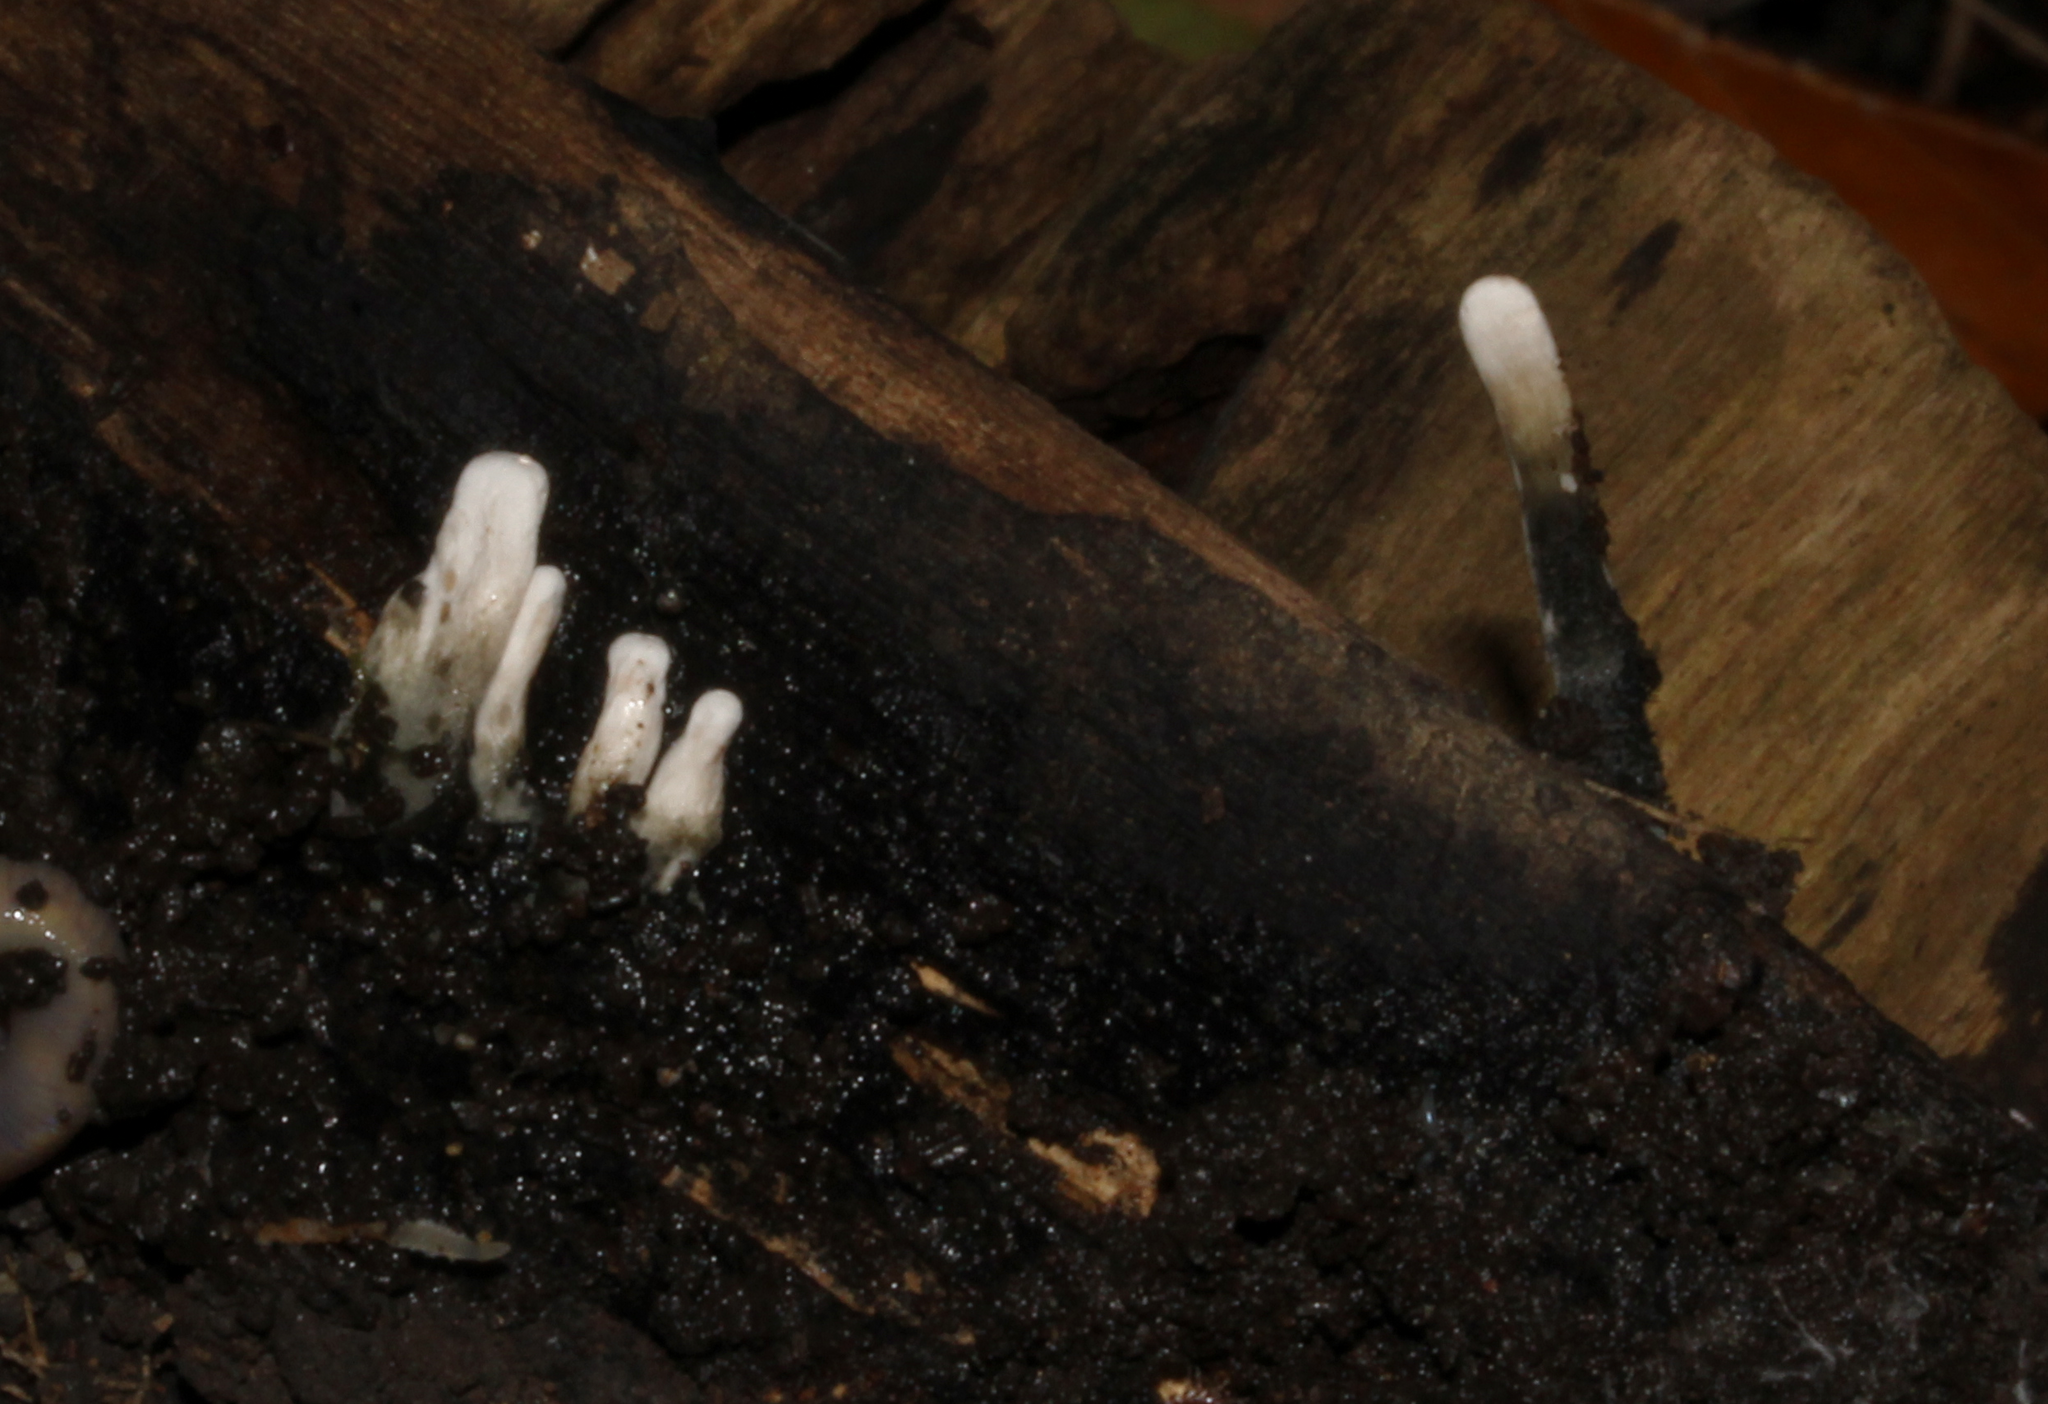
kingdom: Fungi
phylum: Ascomycota
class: Sordariomycetes
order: Xylariales
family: Xylariaceae
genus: Xylaria
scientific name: Xylaria hypoxylon
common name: Candle-snuff fungus
